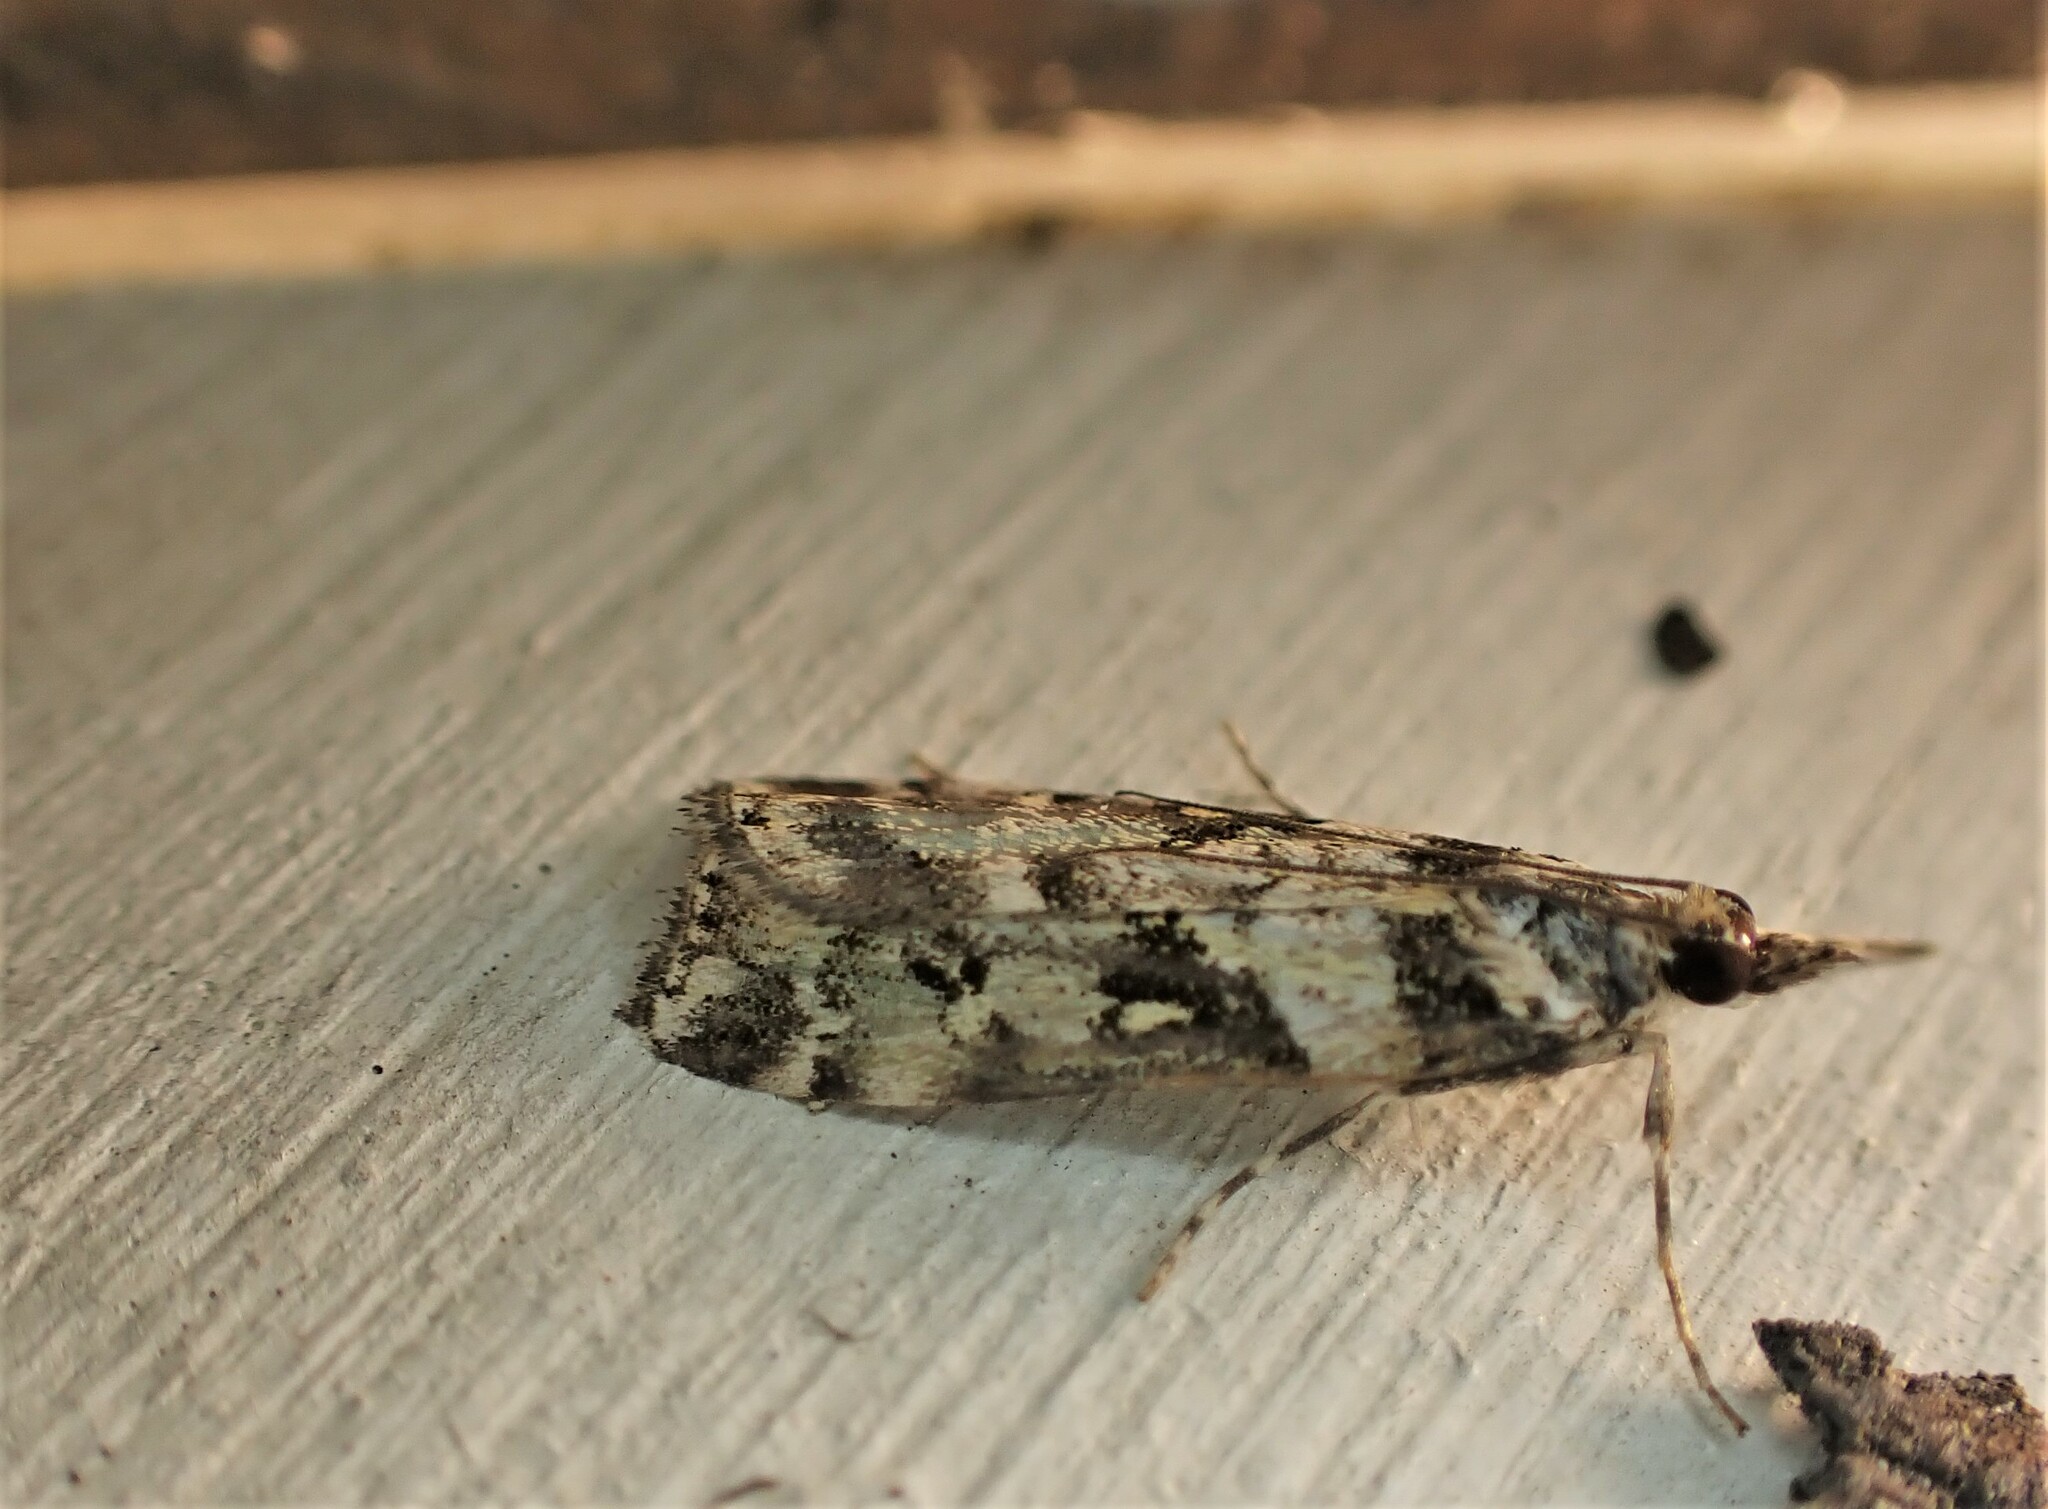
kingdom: Animalia
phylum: Arthropoda
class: Insecta
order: Lepidoptera
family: Crambidae
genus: Eudonia
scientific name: Eudonia diphtheralis
